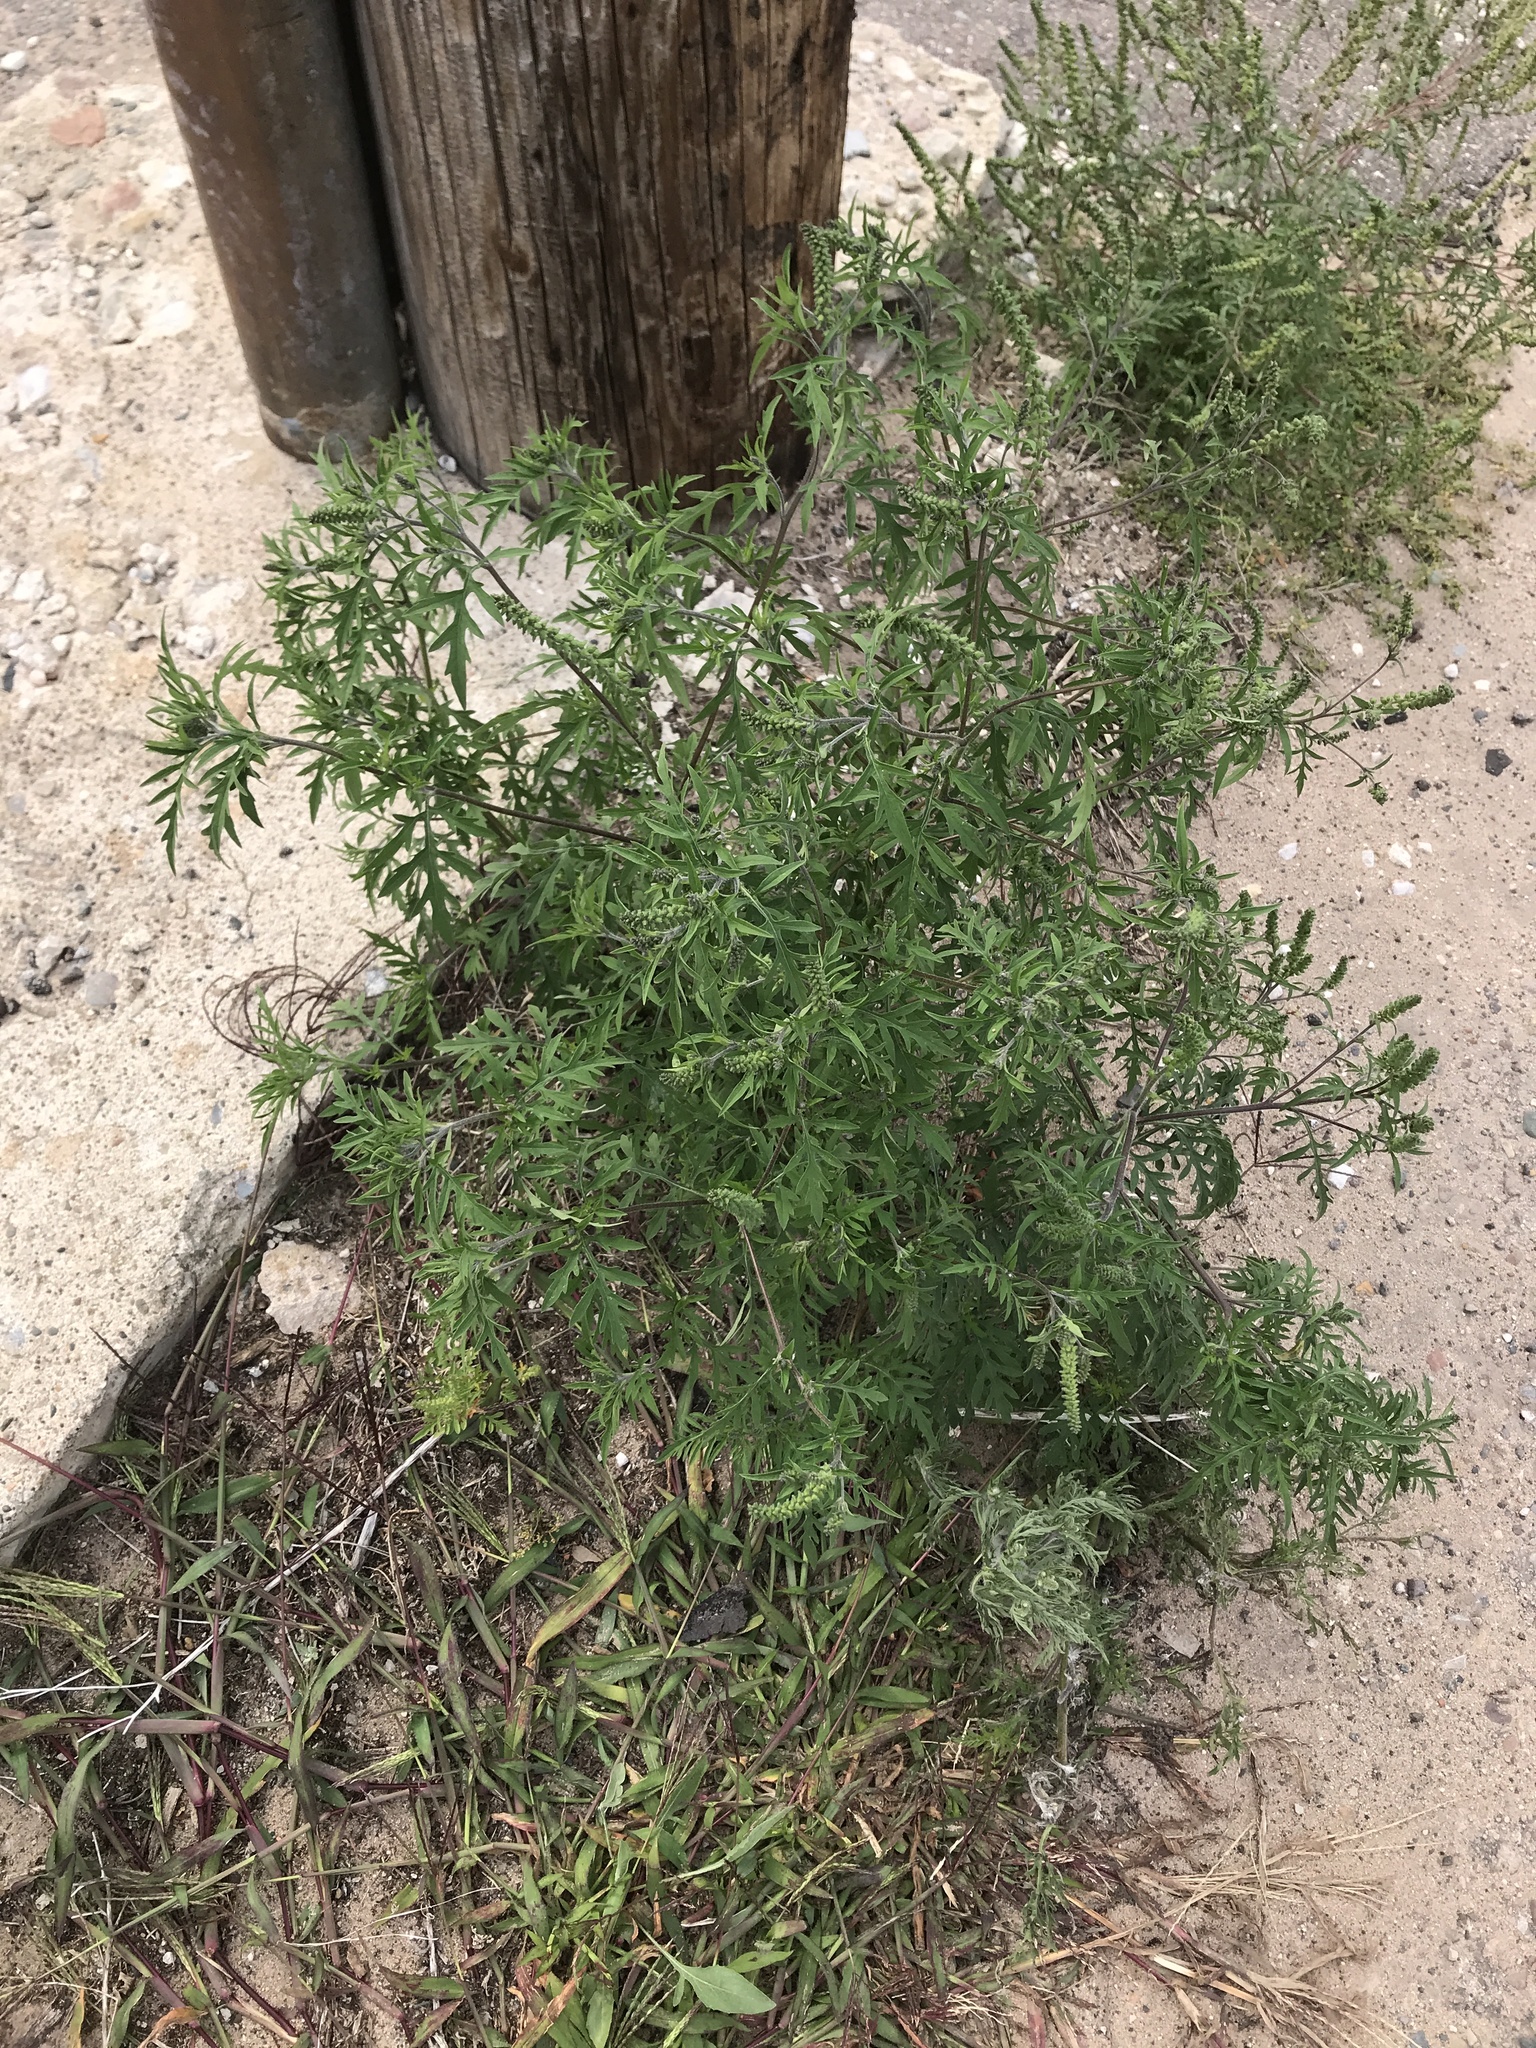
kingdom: Plantae
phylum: Tracheophyta
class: Magnoliopsida
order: Asterales
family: Asteraceae
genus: Ambrosia
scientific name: Ambrosia artemisiifolia
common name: Annual ragweed
